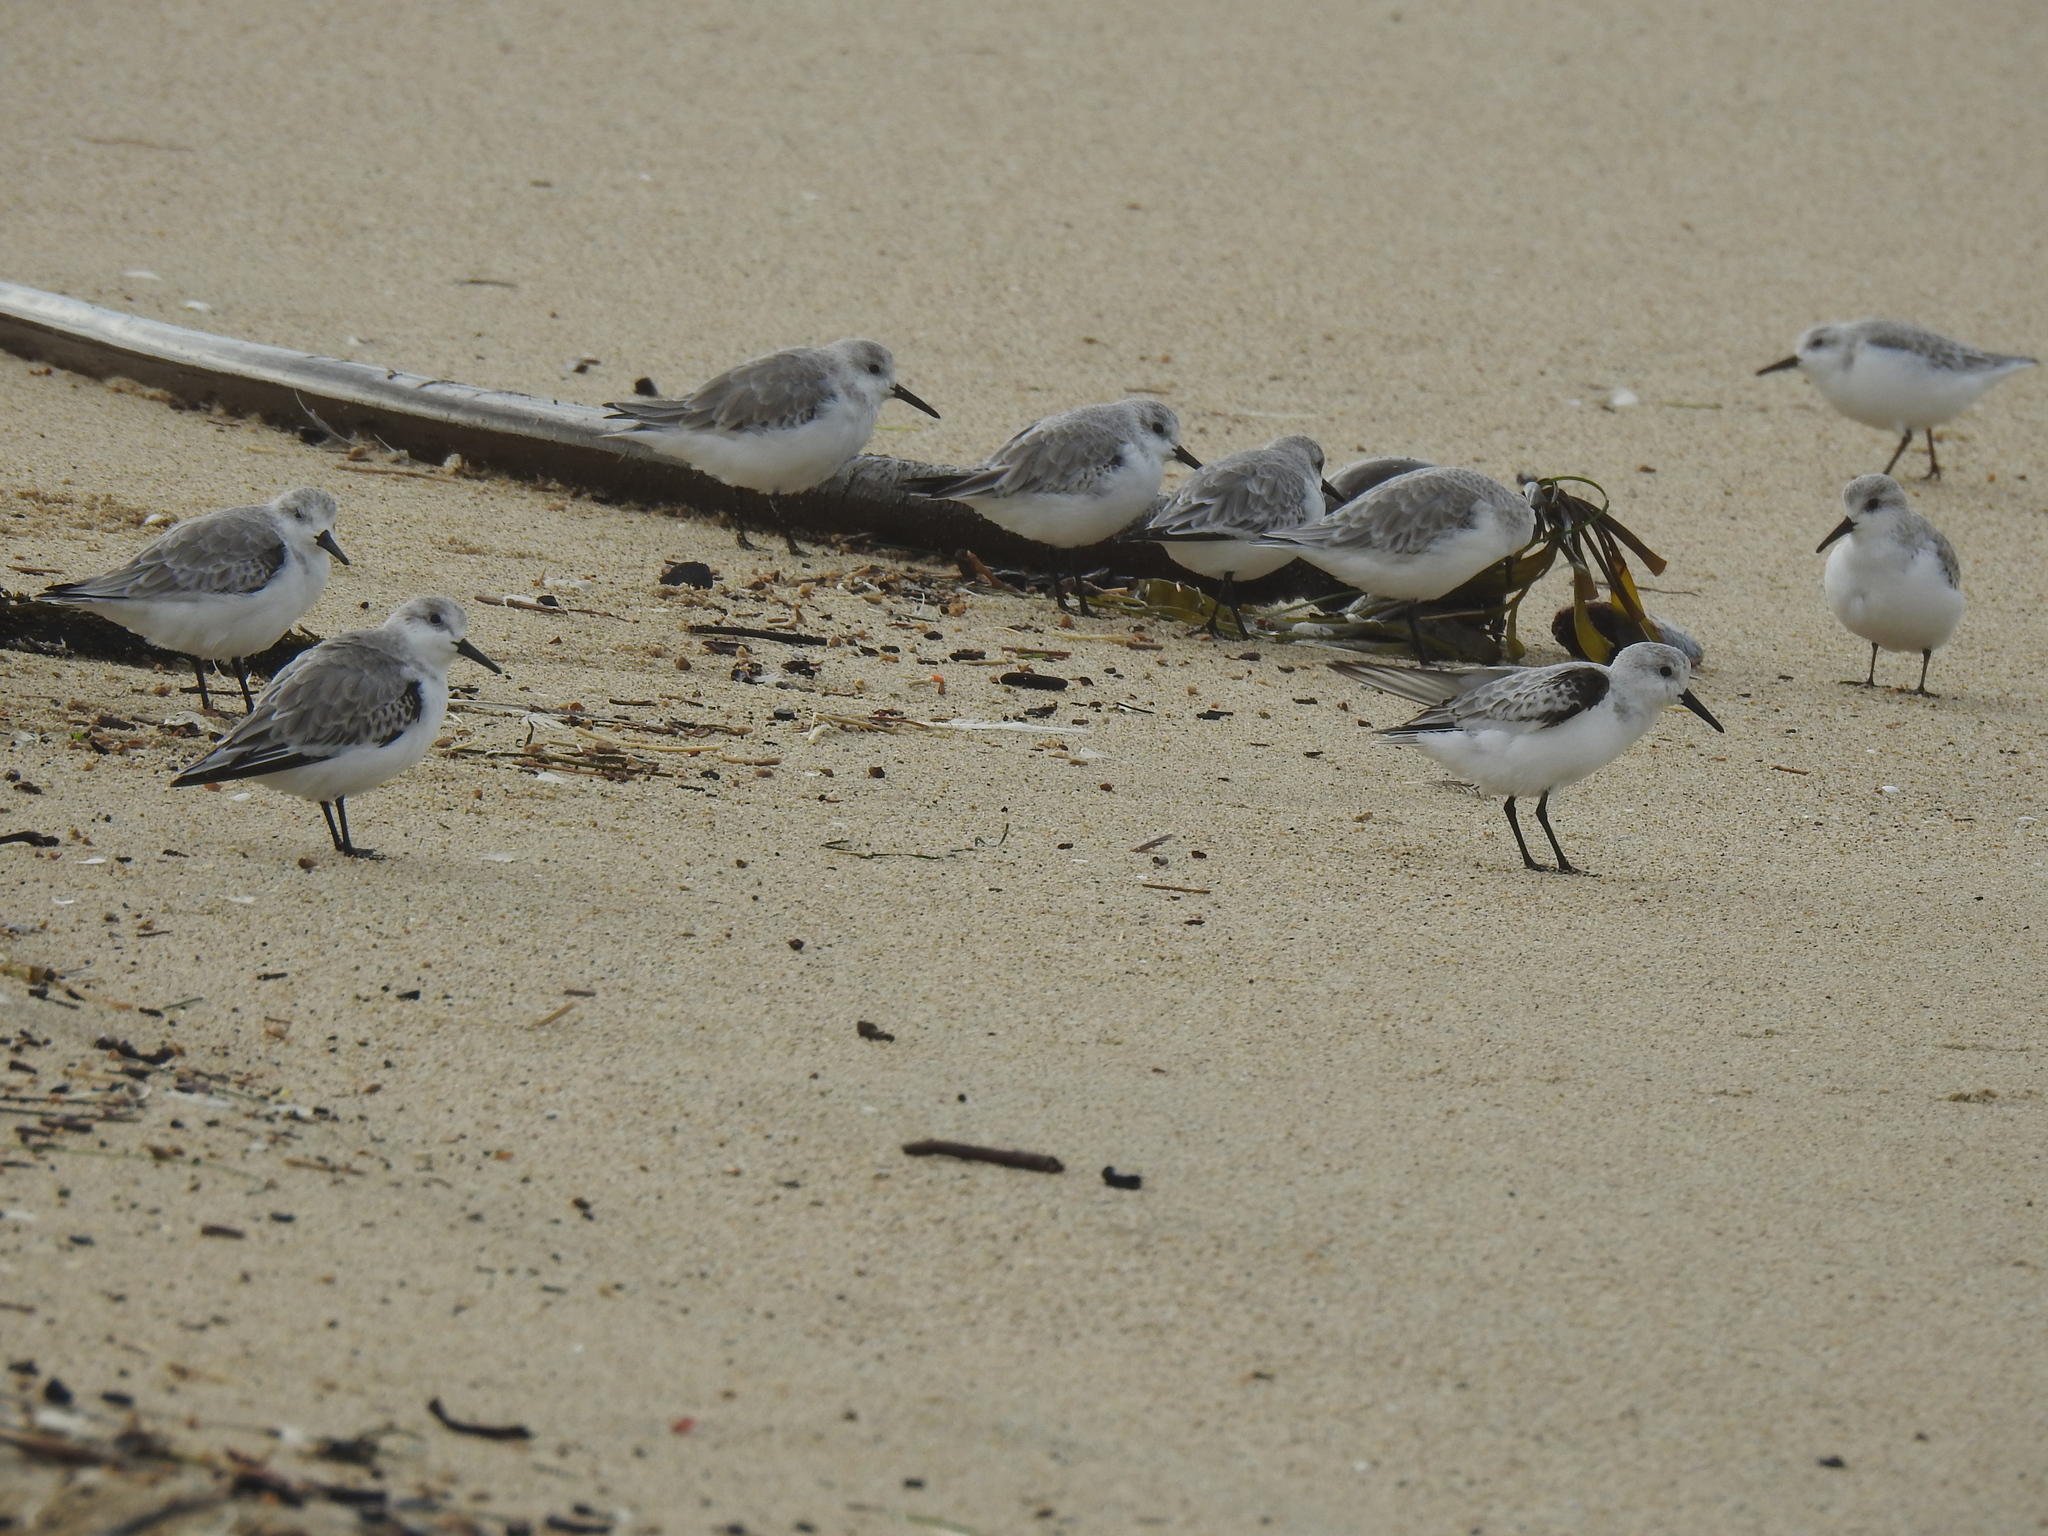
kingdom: Animalia
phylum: Chordata
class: Aves
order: Charadriiformes
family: Scolopacidae
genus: Calidris
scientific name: Calidris alba
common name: Sanderling
